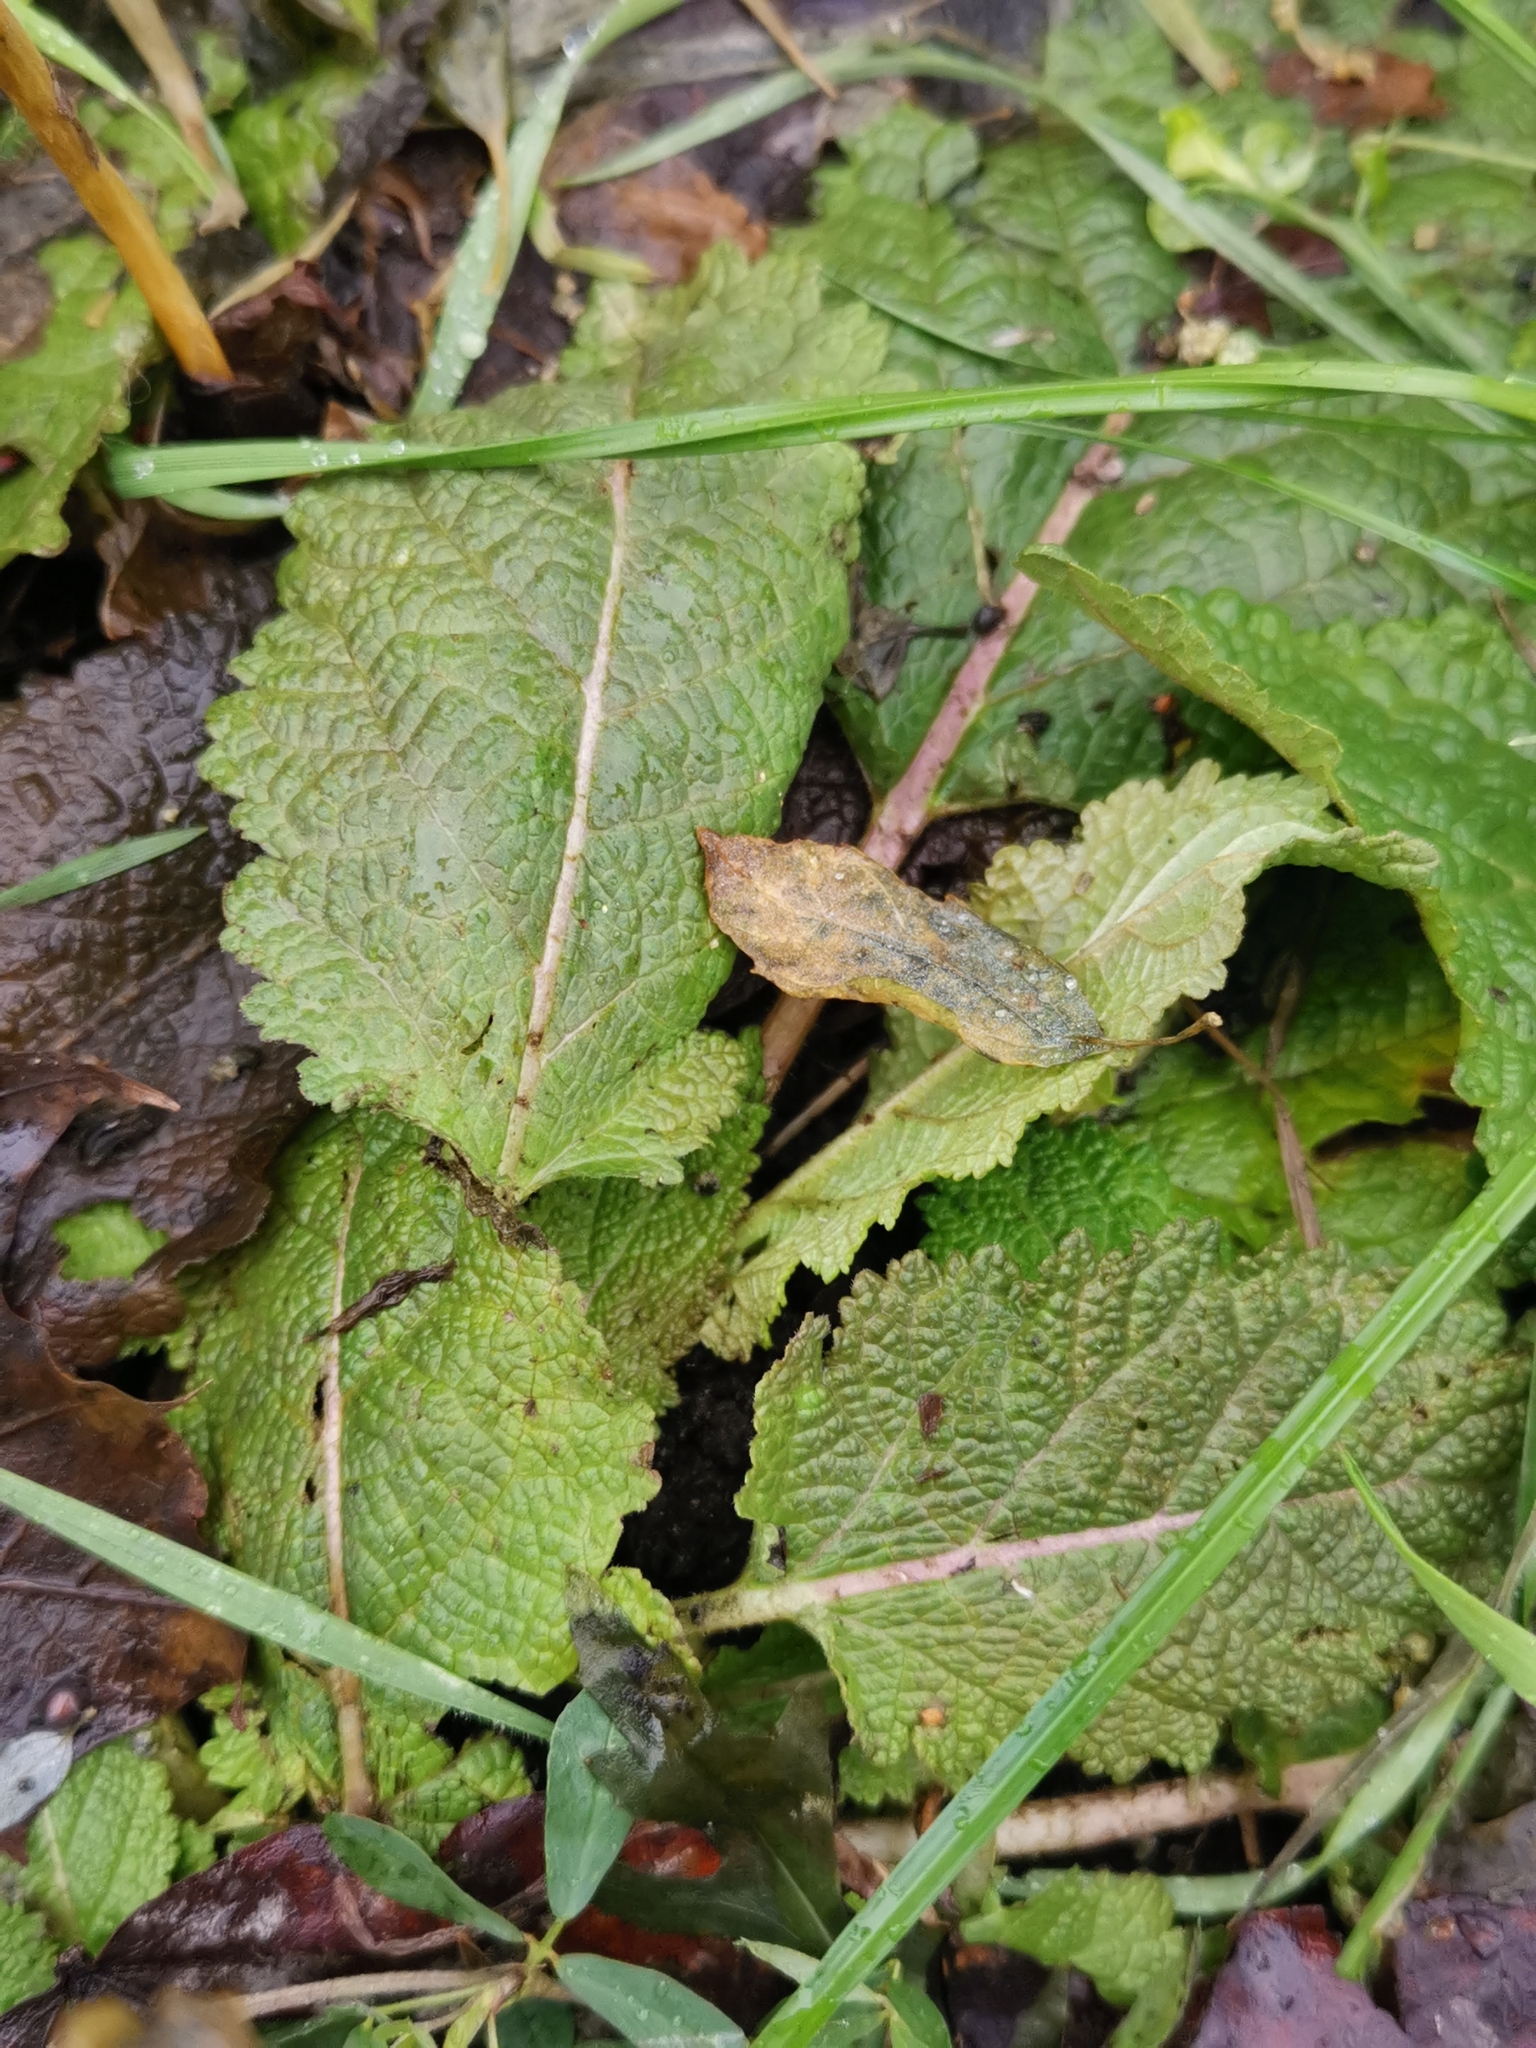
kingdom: Plantae
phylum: Tracheophyta
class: Magnoliopsida
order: Lamiales
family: Lamiaceae
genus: Salvia
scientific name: Salvia pratensis
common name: Meadow sage
